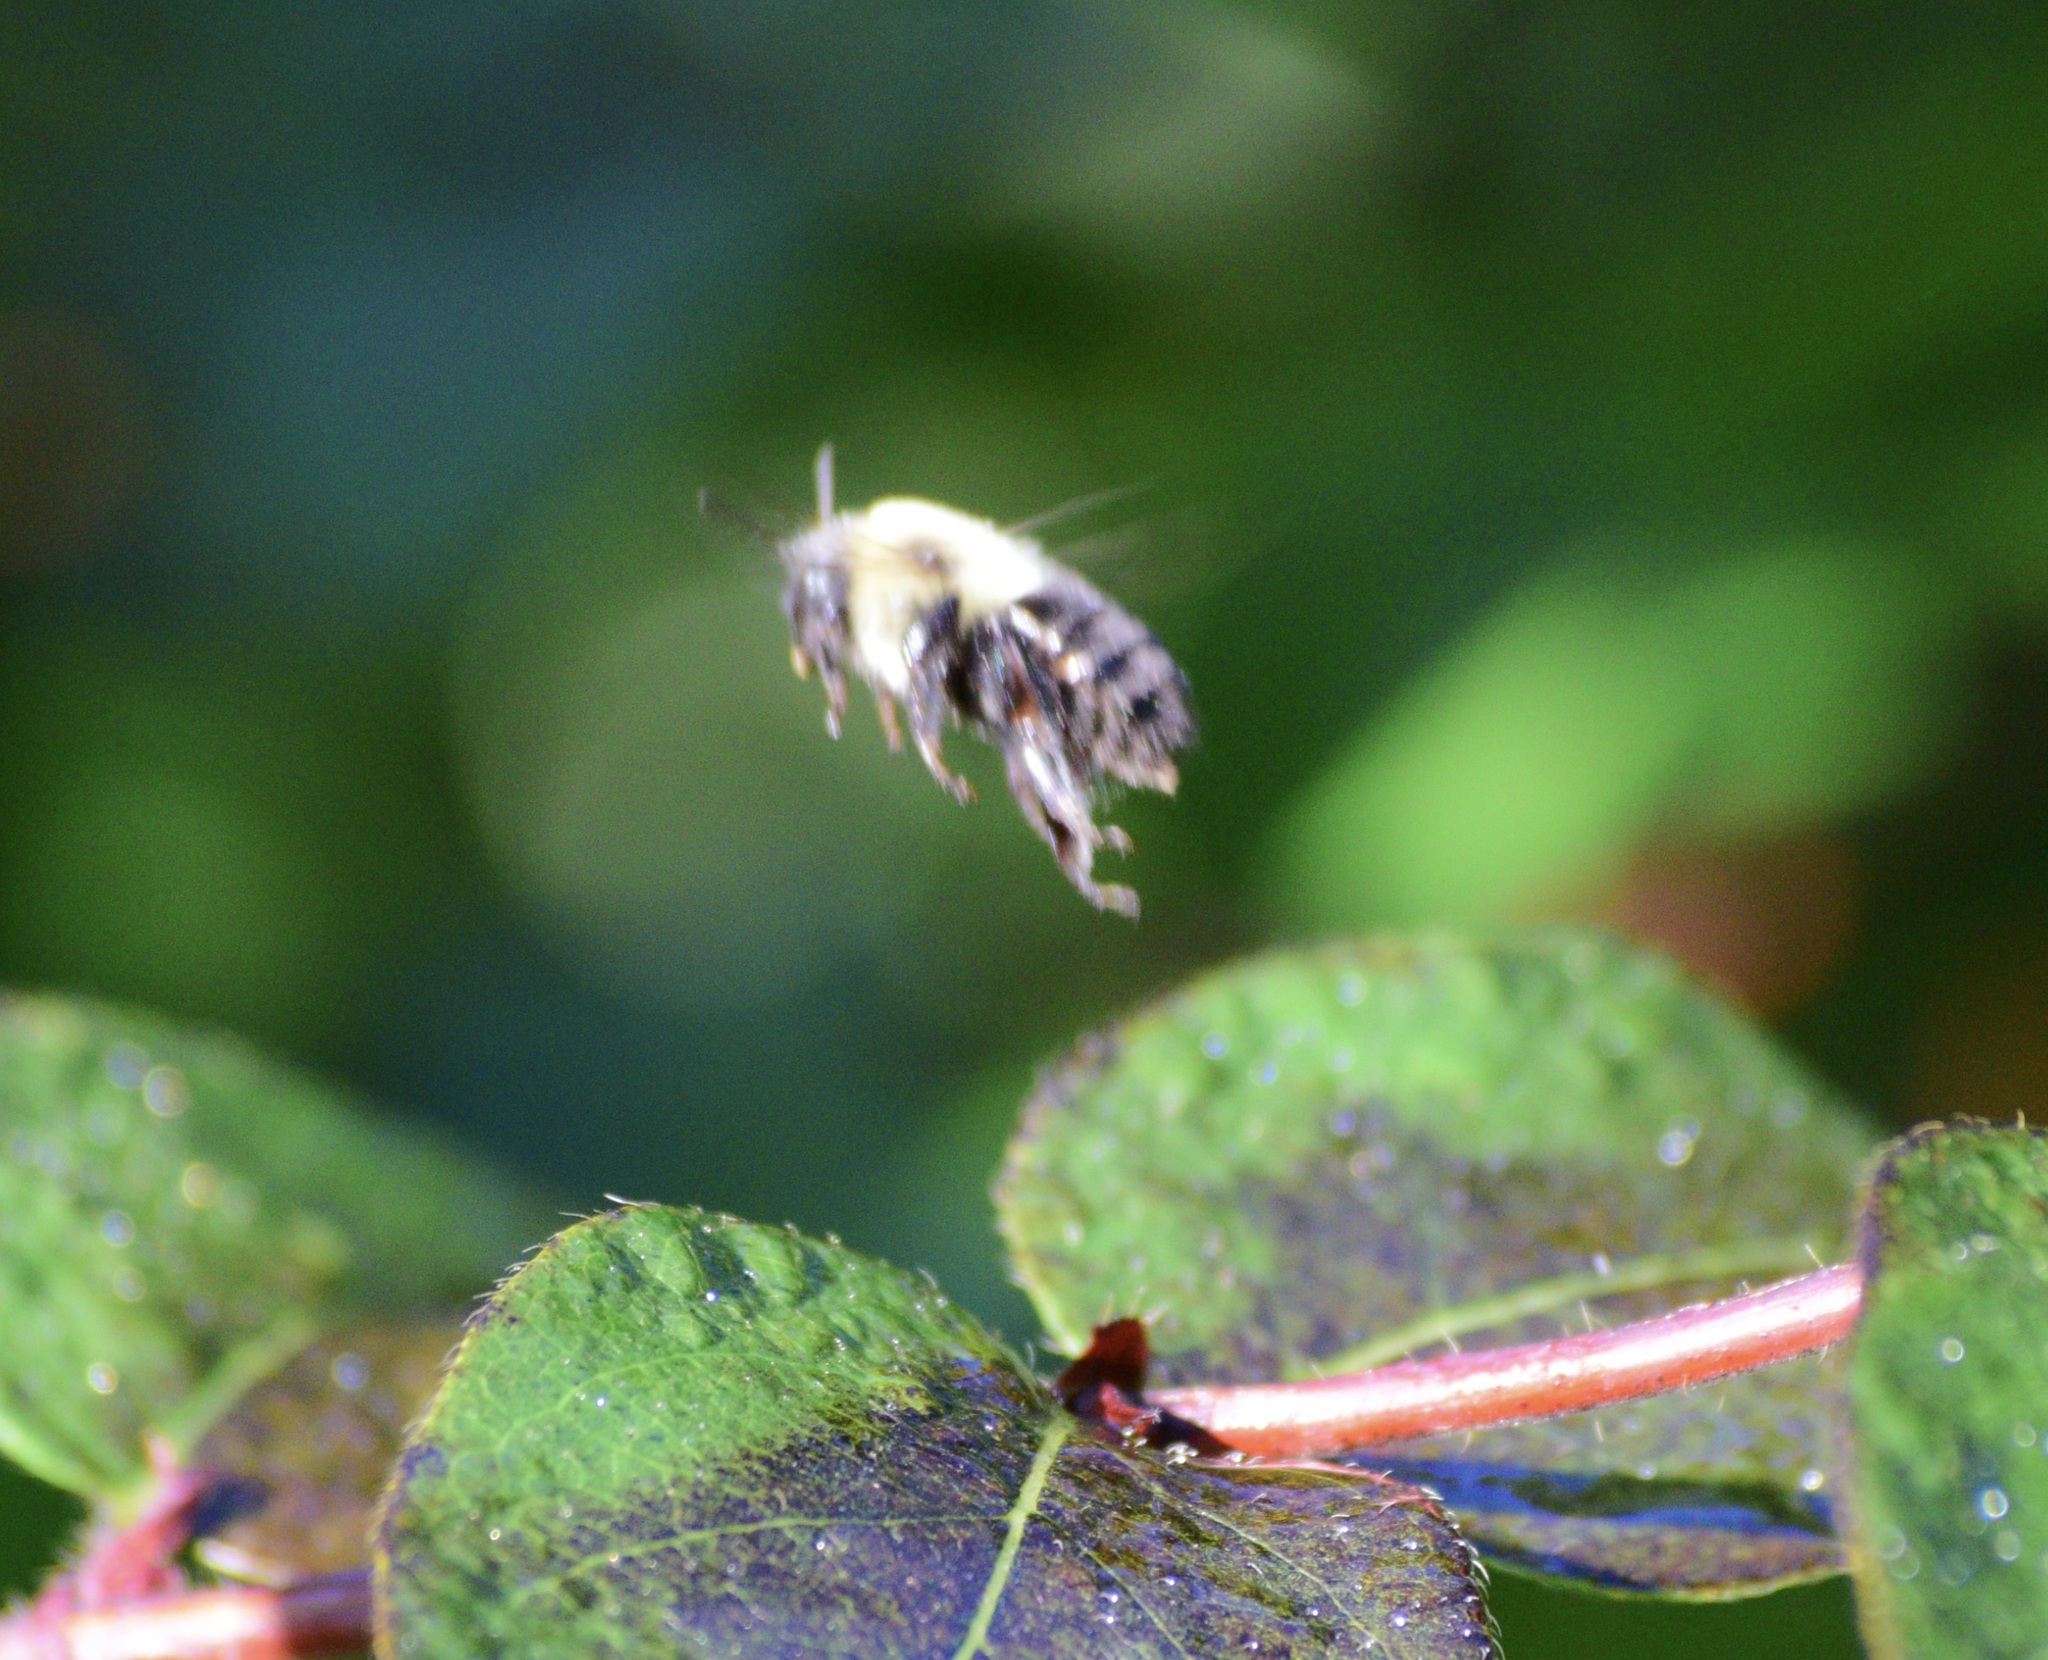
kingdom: Animalia
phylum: Arthropoda
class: Insecta
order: Hymenoptera
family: Apidae
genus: Bombus
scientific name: Bombus impatiens
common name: Common eastern bumble bee
